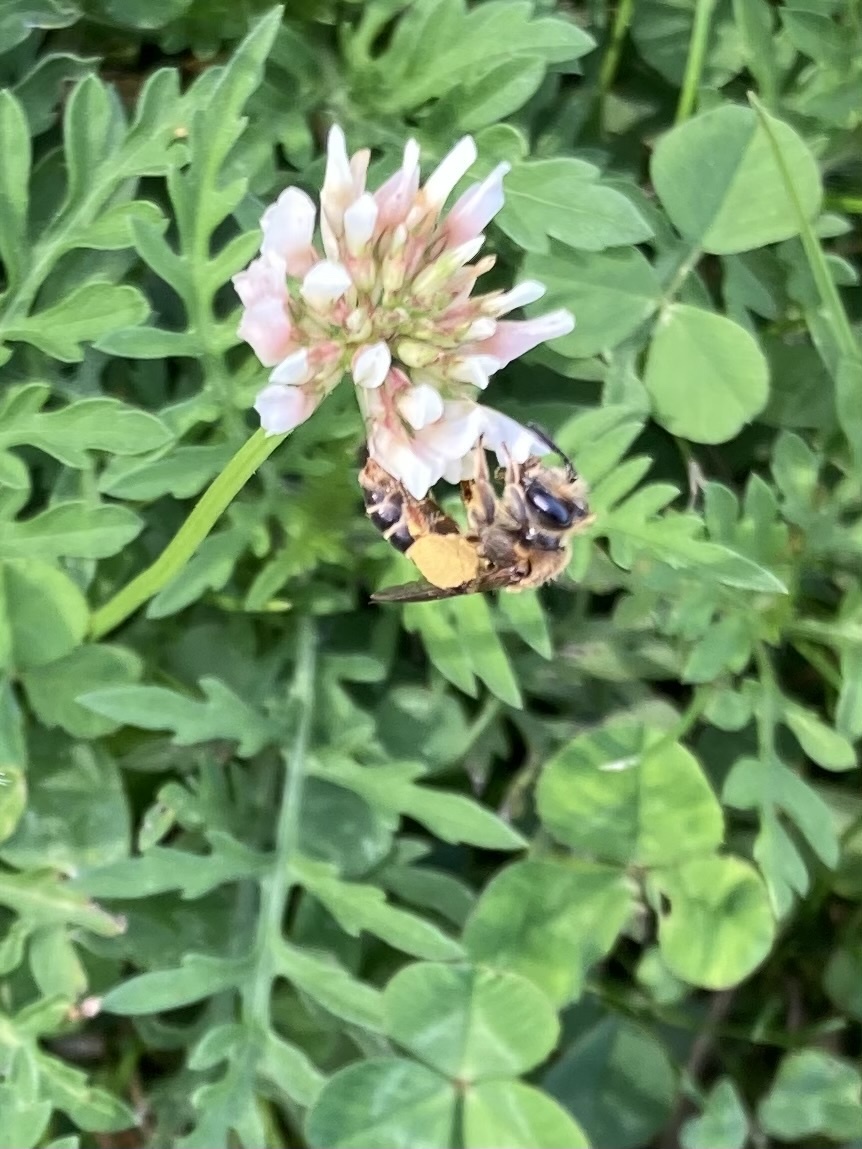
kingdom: Animalia
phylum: Arthropoda
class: Insecta
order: Hymenoptera
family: Andrenidae
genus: Andrena
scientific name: Andrena wilkella
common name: Wilke's mining bee
